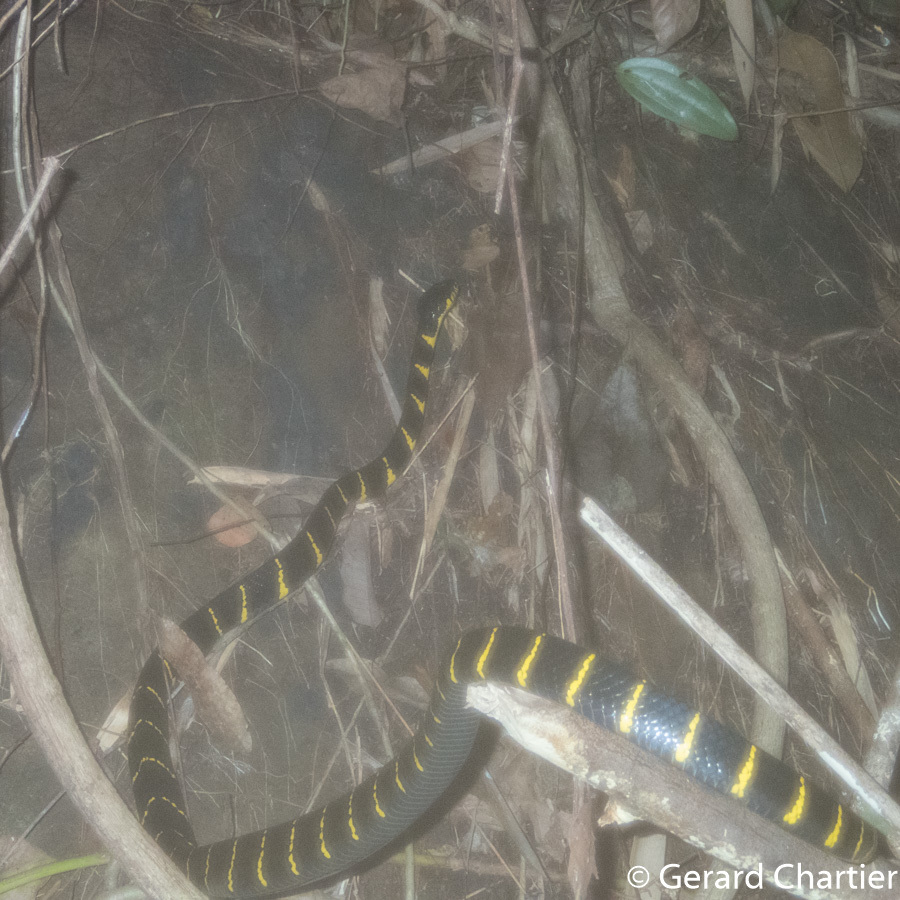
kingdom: Animalia
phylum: Chordata
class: Squamata
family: Colubridae
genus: Boiga
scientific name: Boiga melanota
